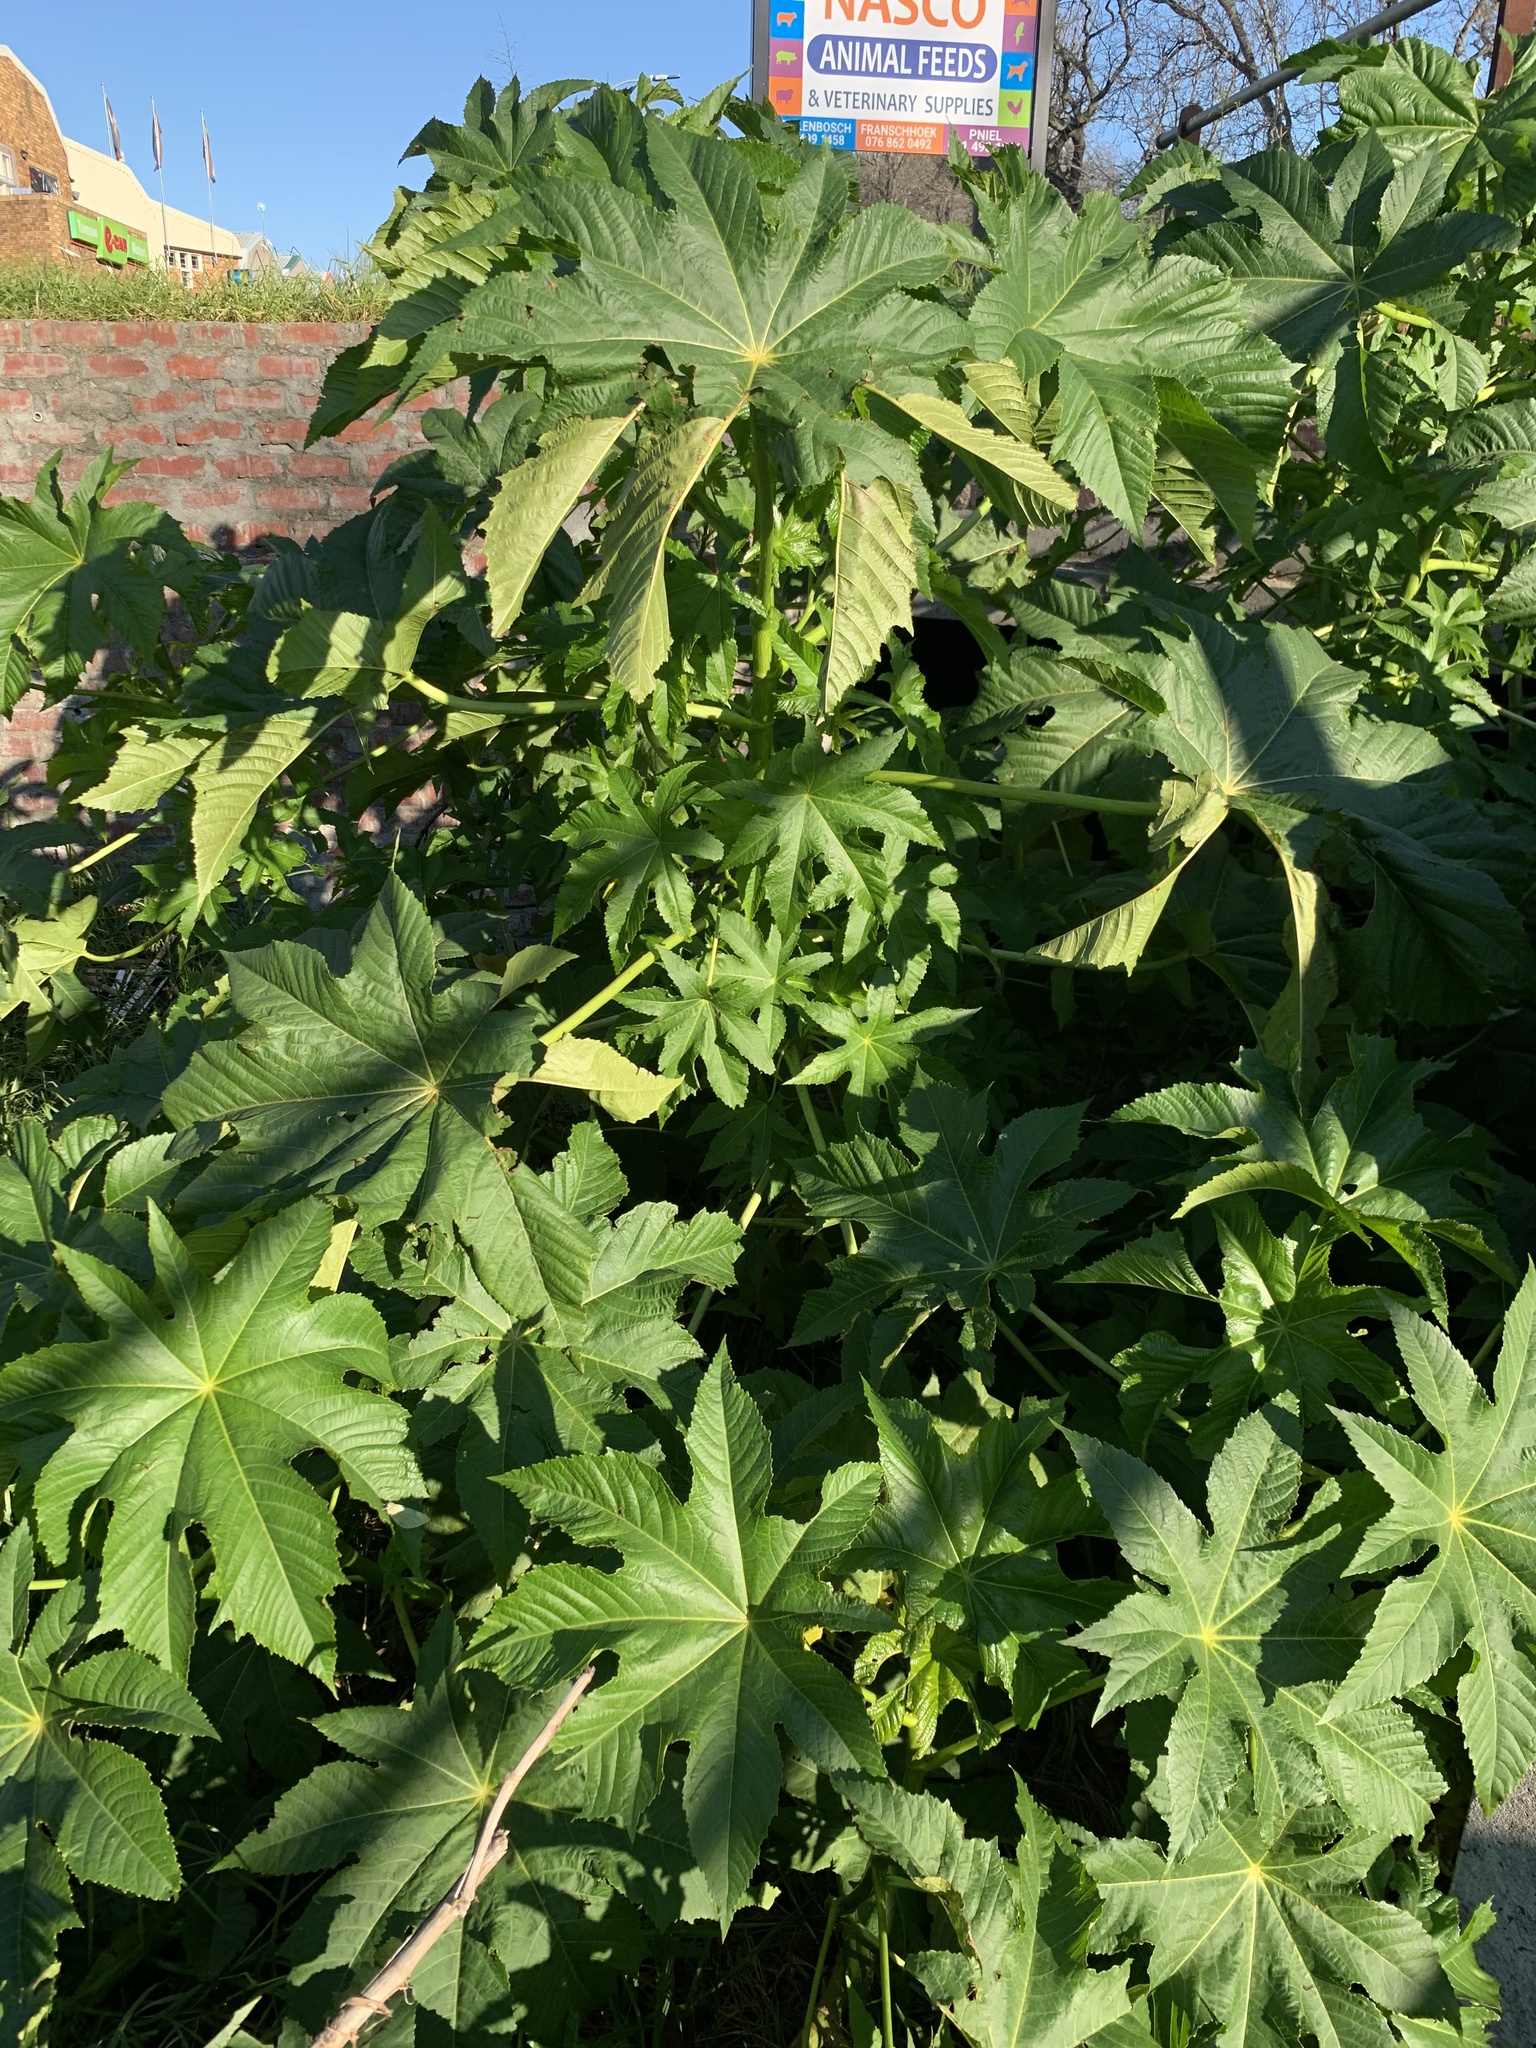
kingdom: Plantae
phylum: Tracheophyta
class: Magnoliopsida
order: Malpighiales
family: Euphorbiaceae
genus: Ricinus
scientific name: Ricinus communis
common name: Castor-oil-plant
